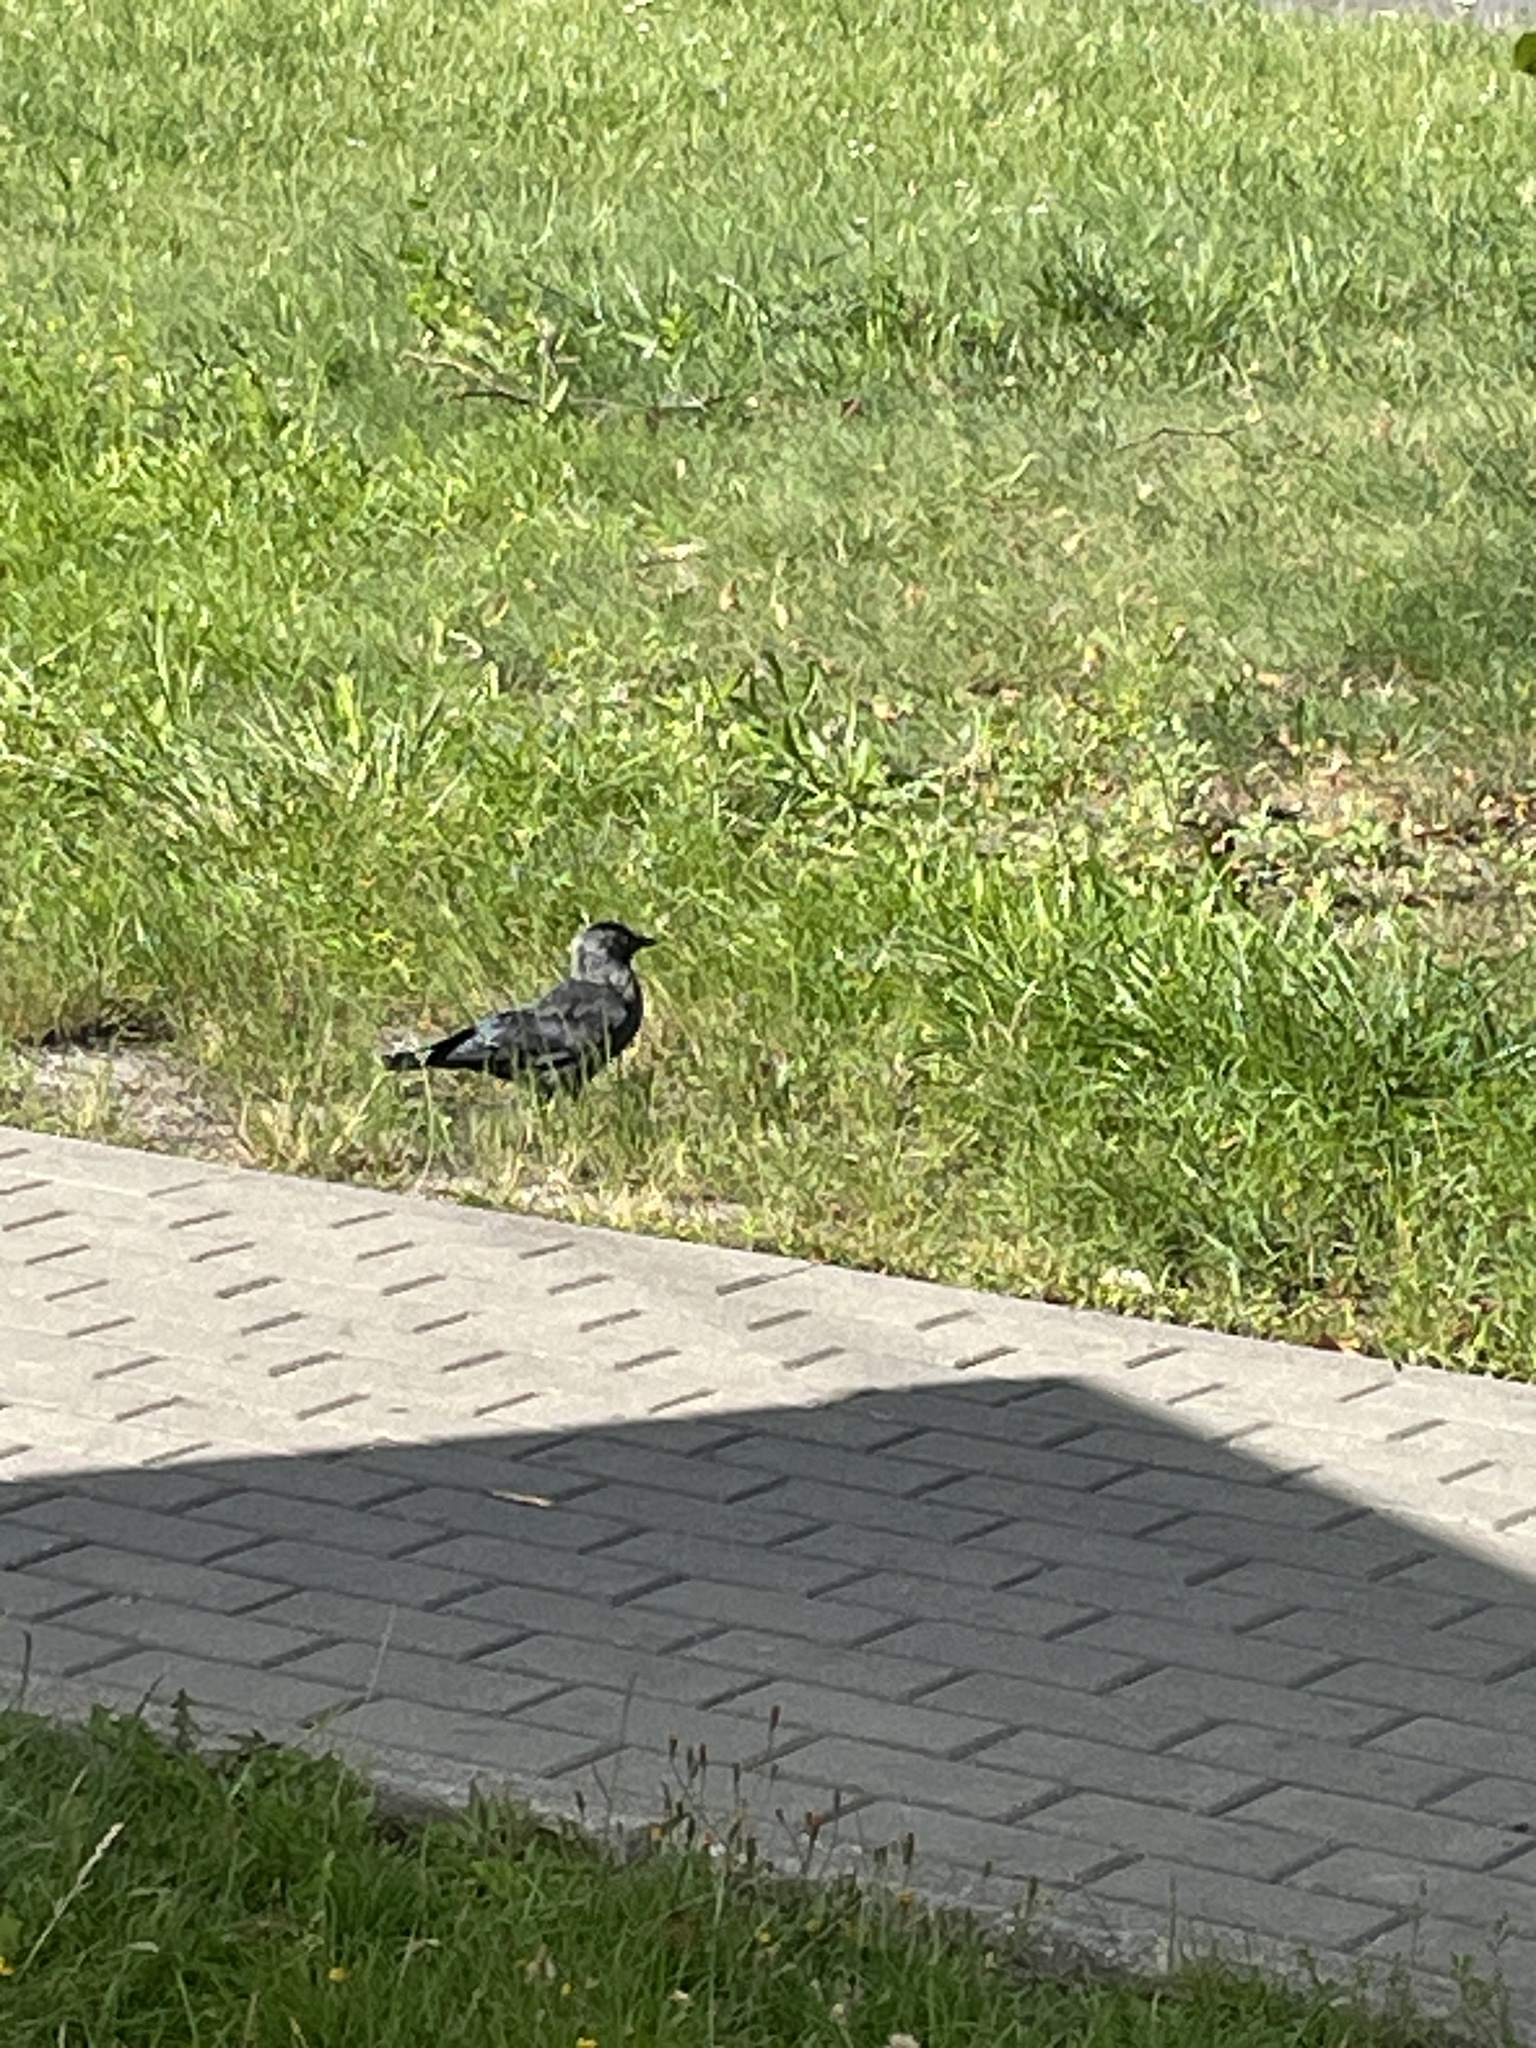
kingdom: Animalia
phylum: Chordata
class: Aves
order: Passeriformes
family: Corvidae
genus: Coloeus
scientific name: Coloeus monedula
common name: Western jackdaw
